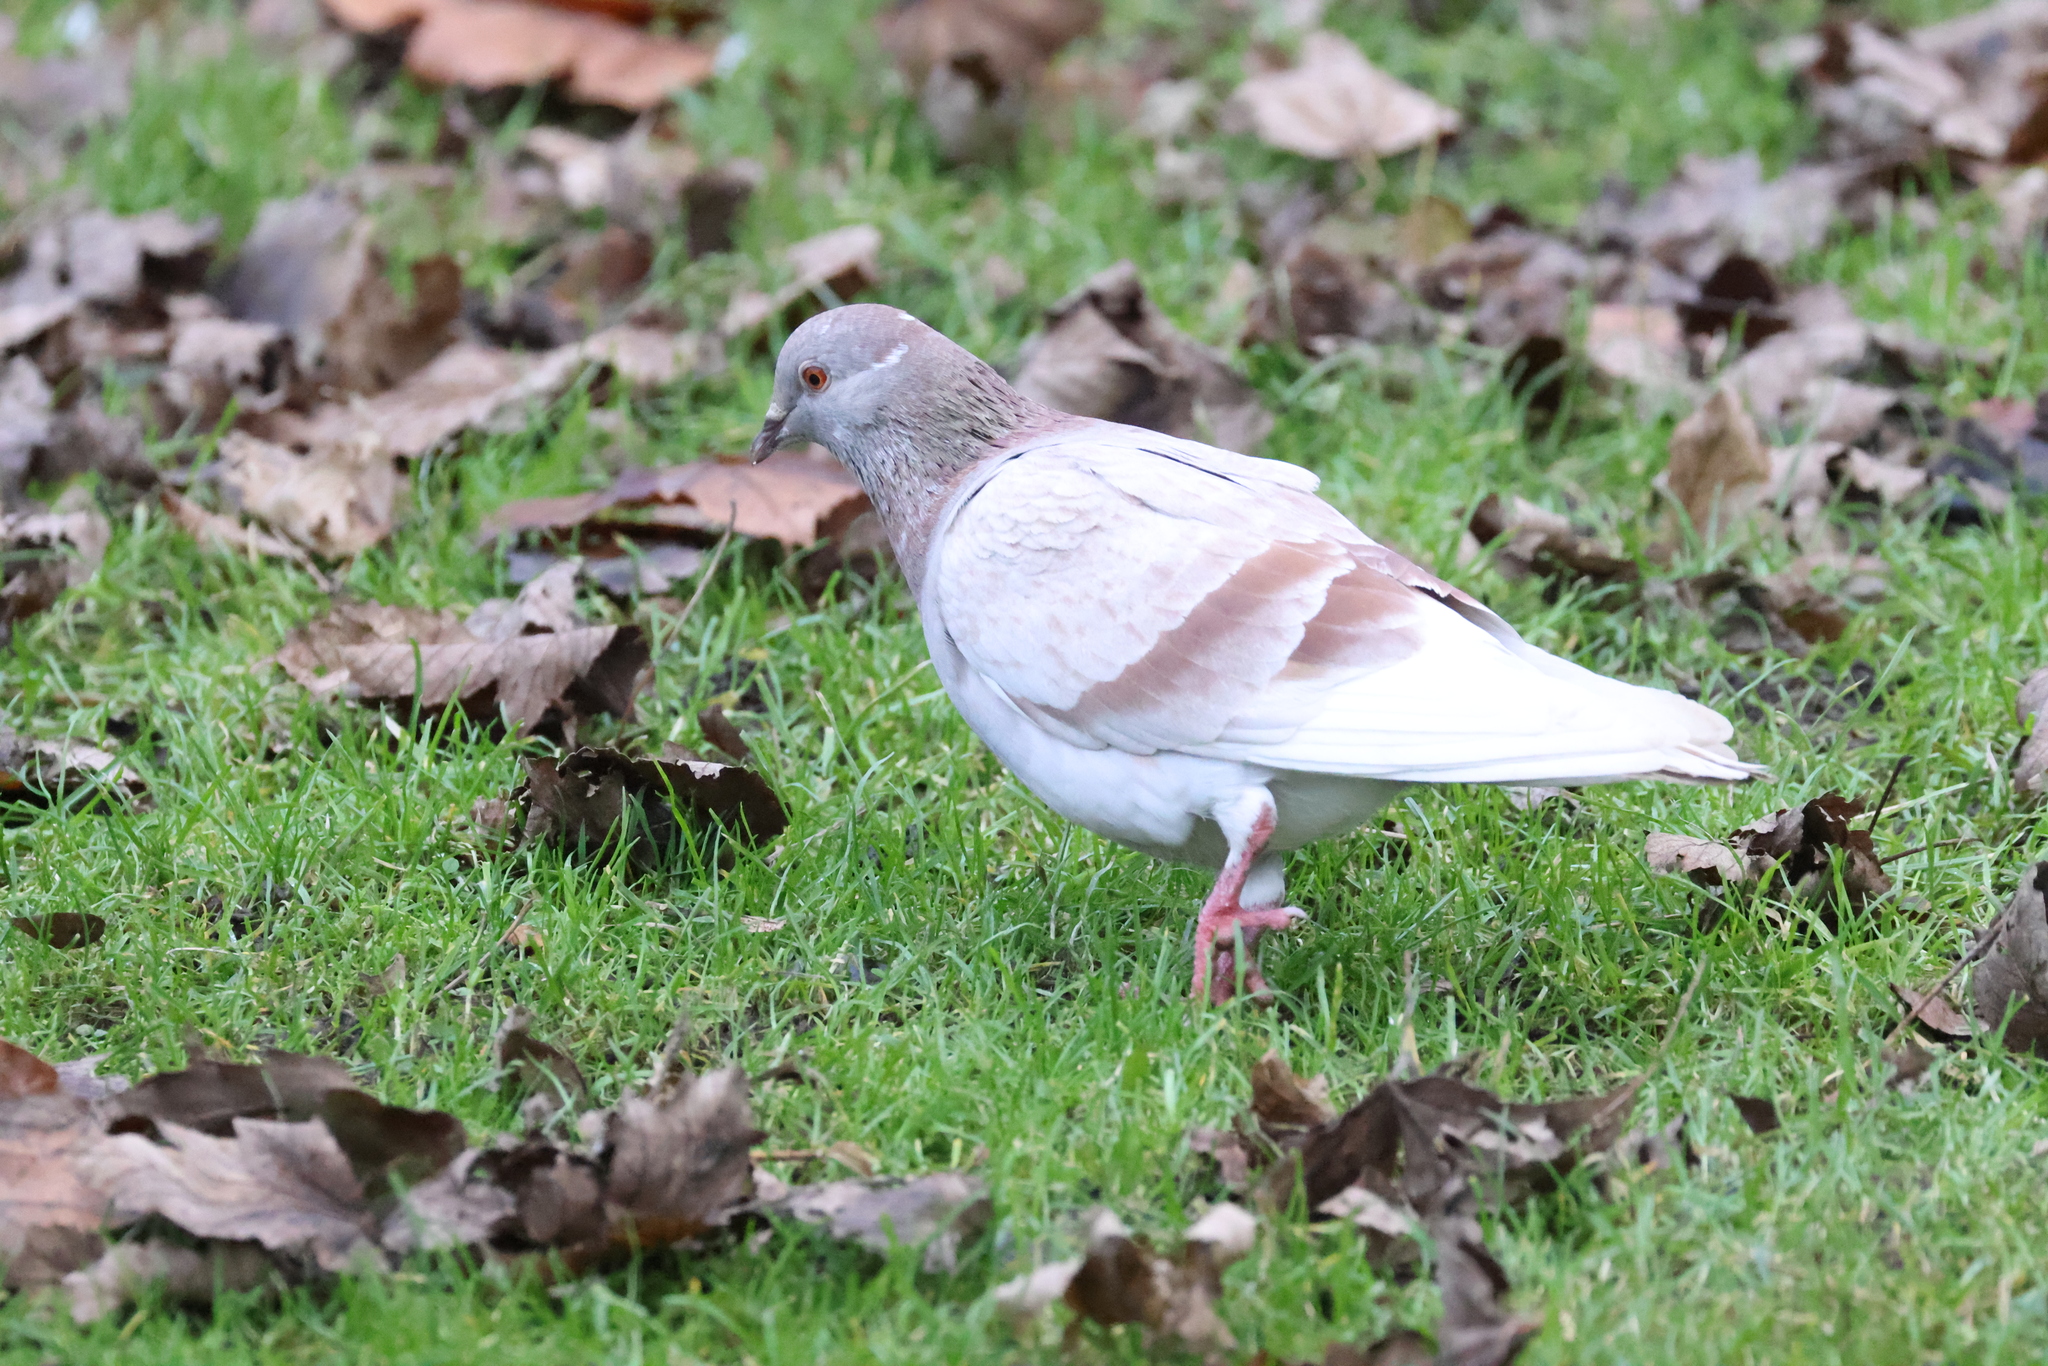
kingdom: Animalia
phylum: Chordata
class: Aves
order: Columbiformes
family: Columbidae
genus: Columba
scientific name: Columba livia
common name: Rock pigeon
